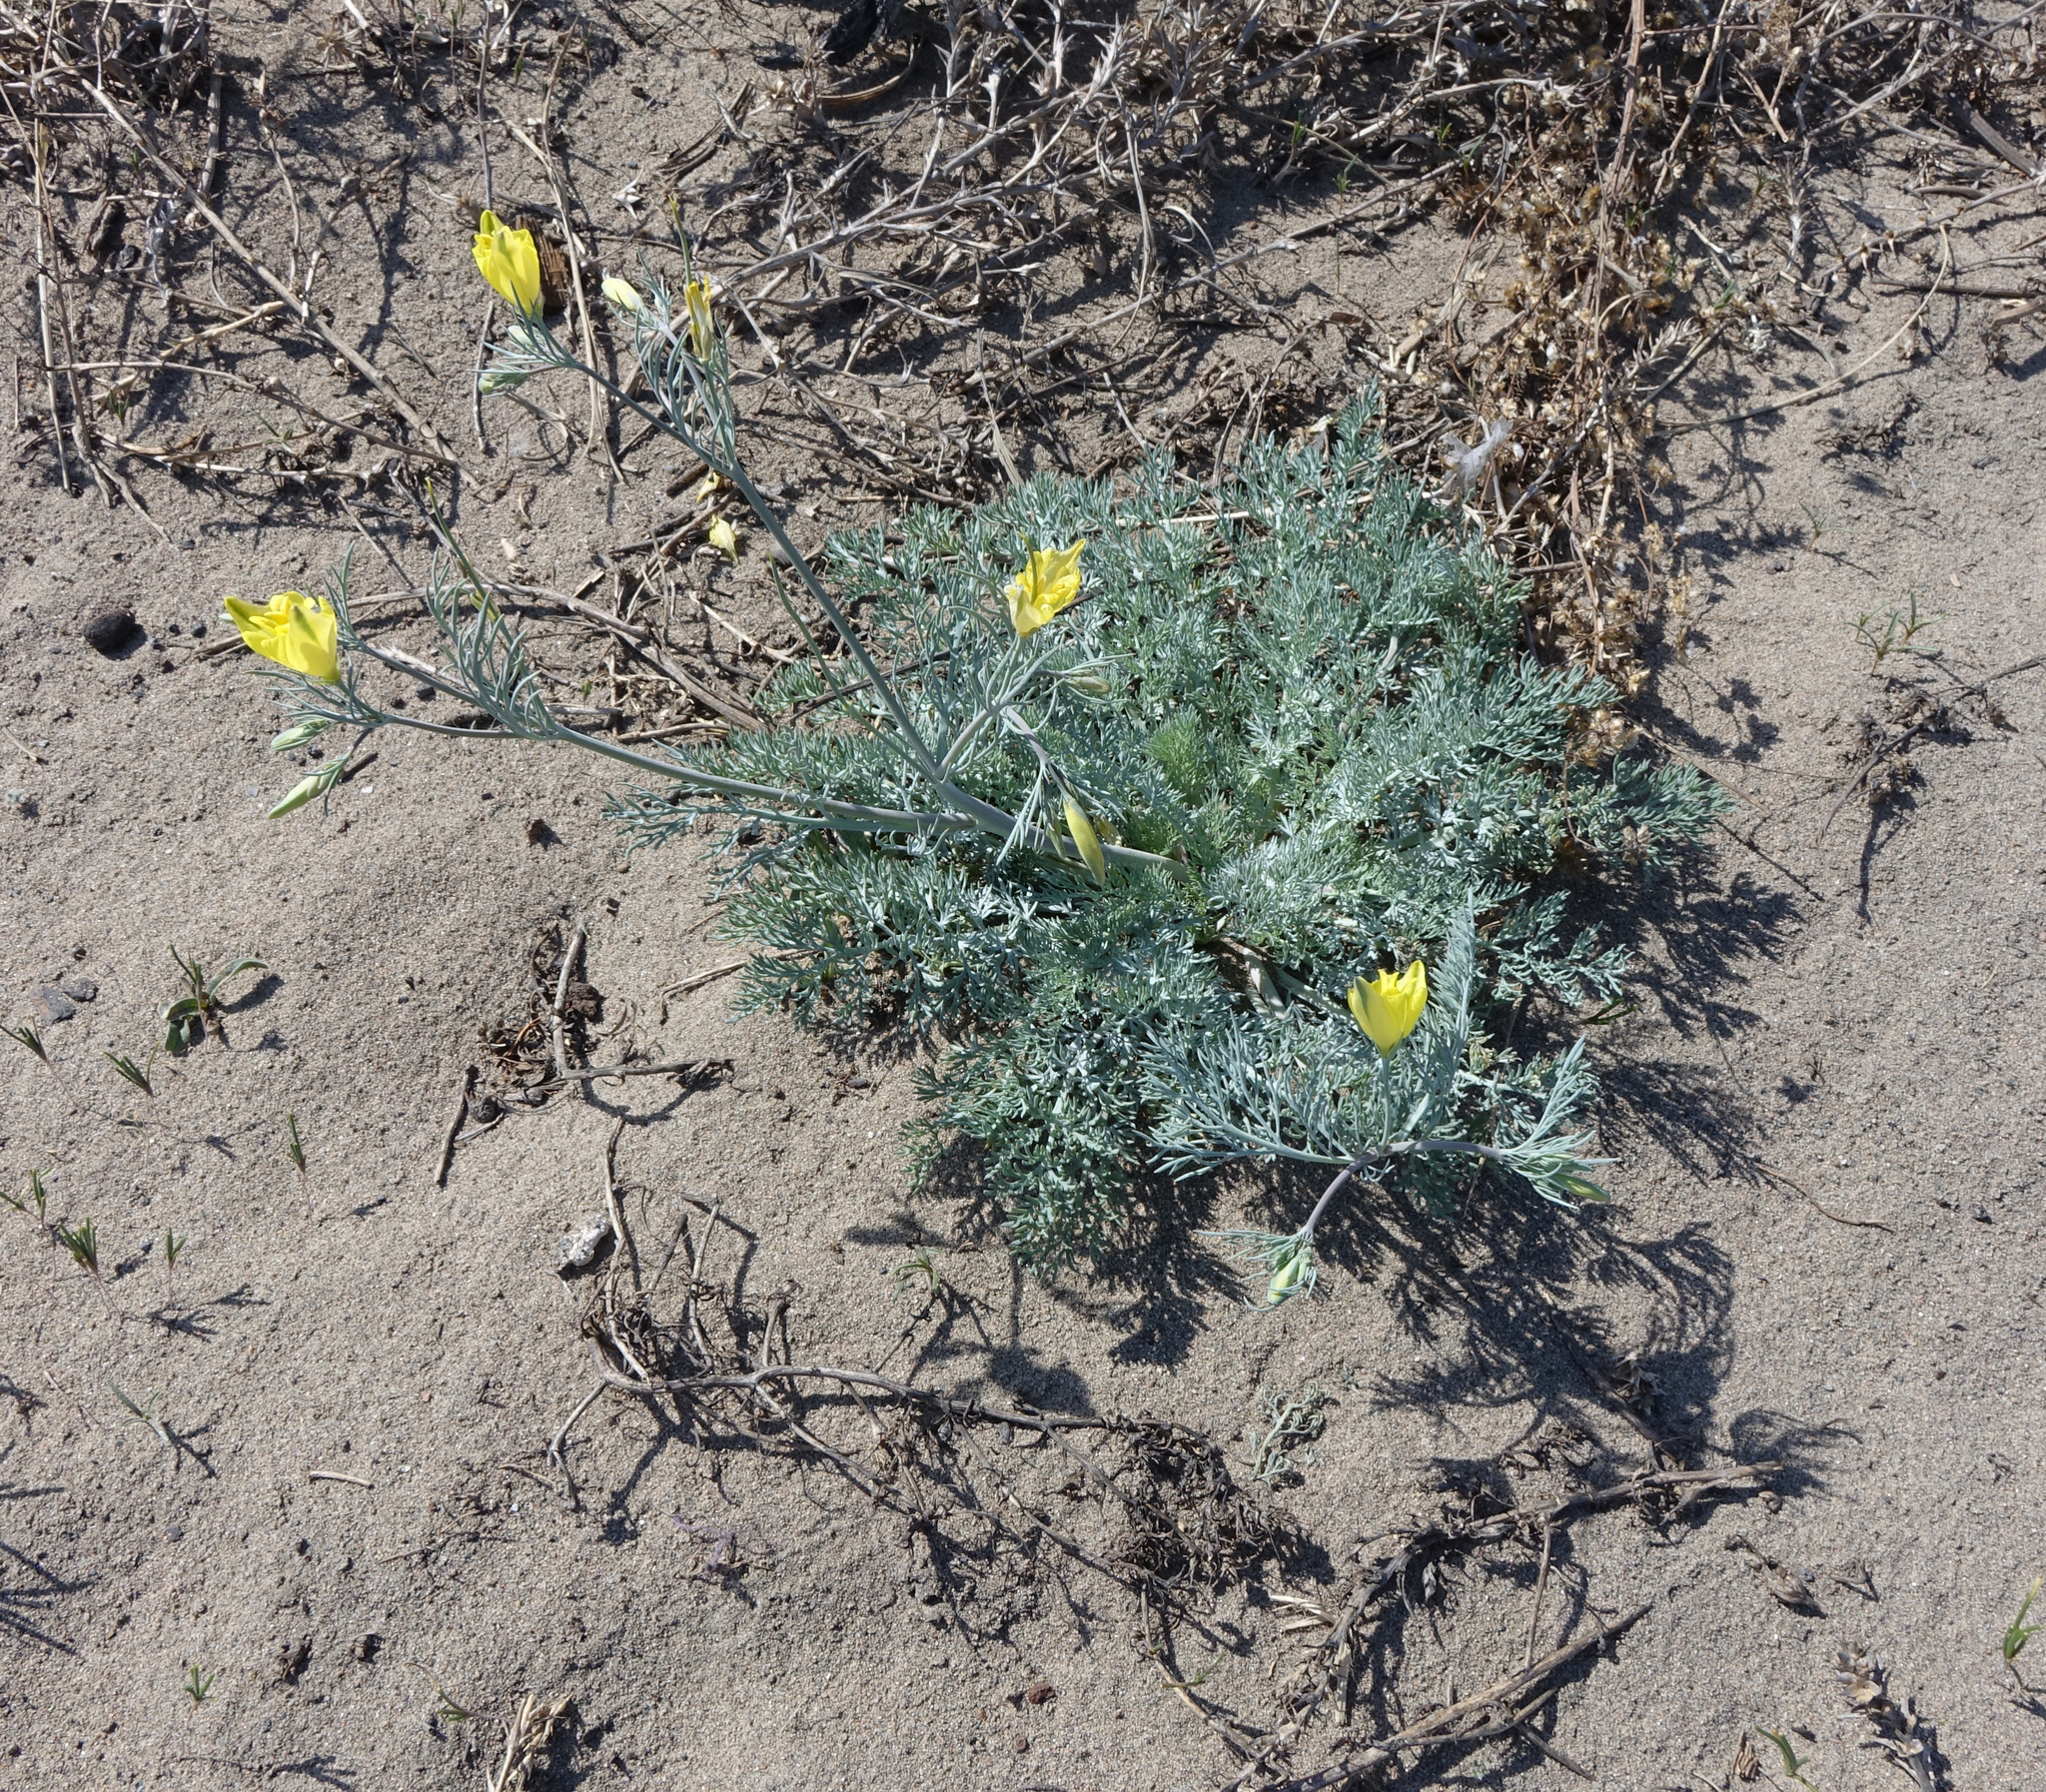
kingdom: Plantae
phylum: Tracheophyta
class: Magnoliopsida
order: Ranunculales
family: Papaveraceae
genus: Hypecoum
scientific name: Hypecoum erectum
